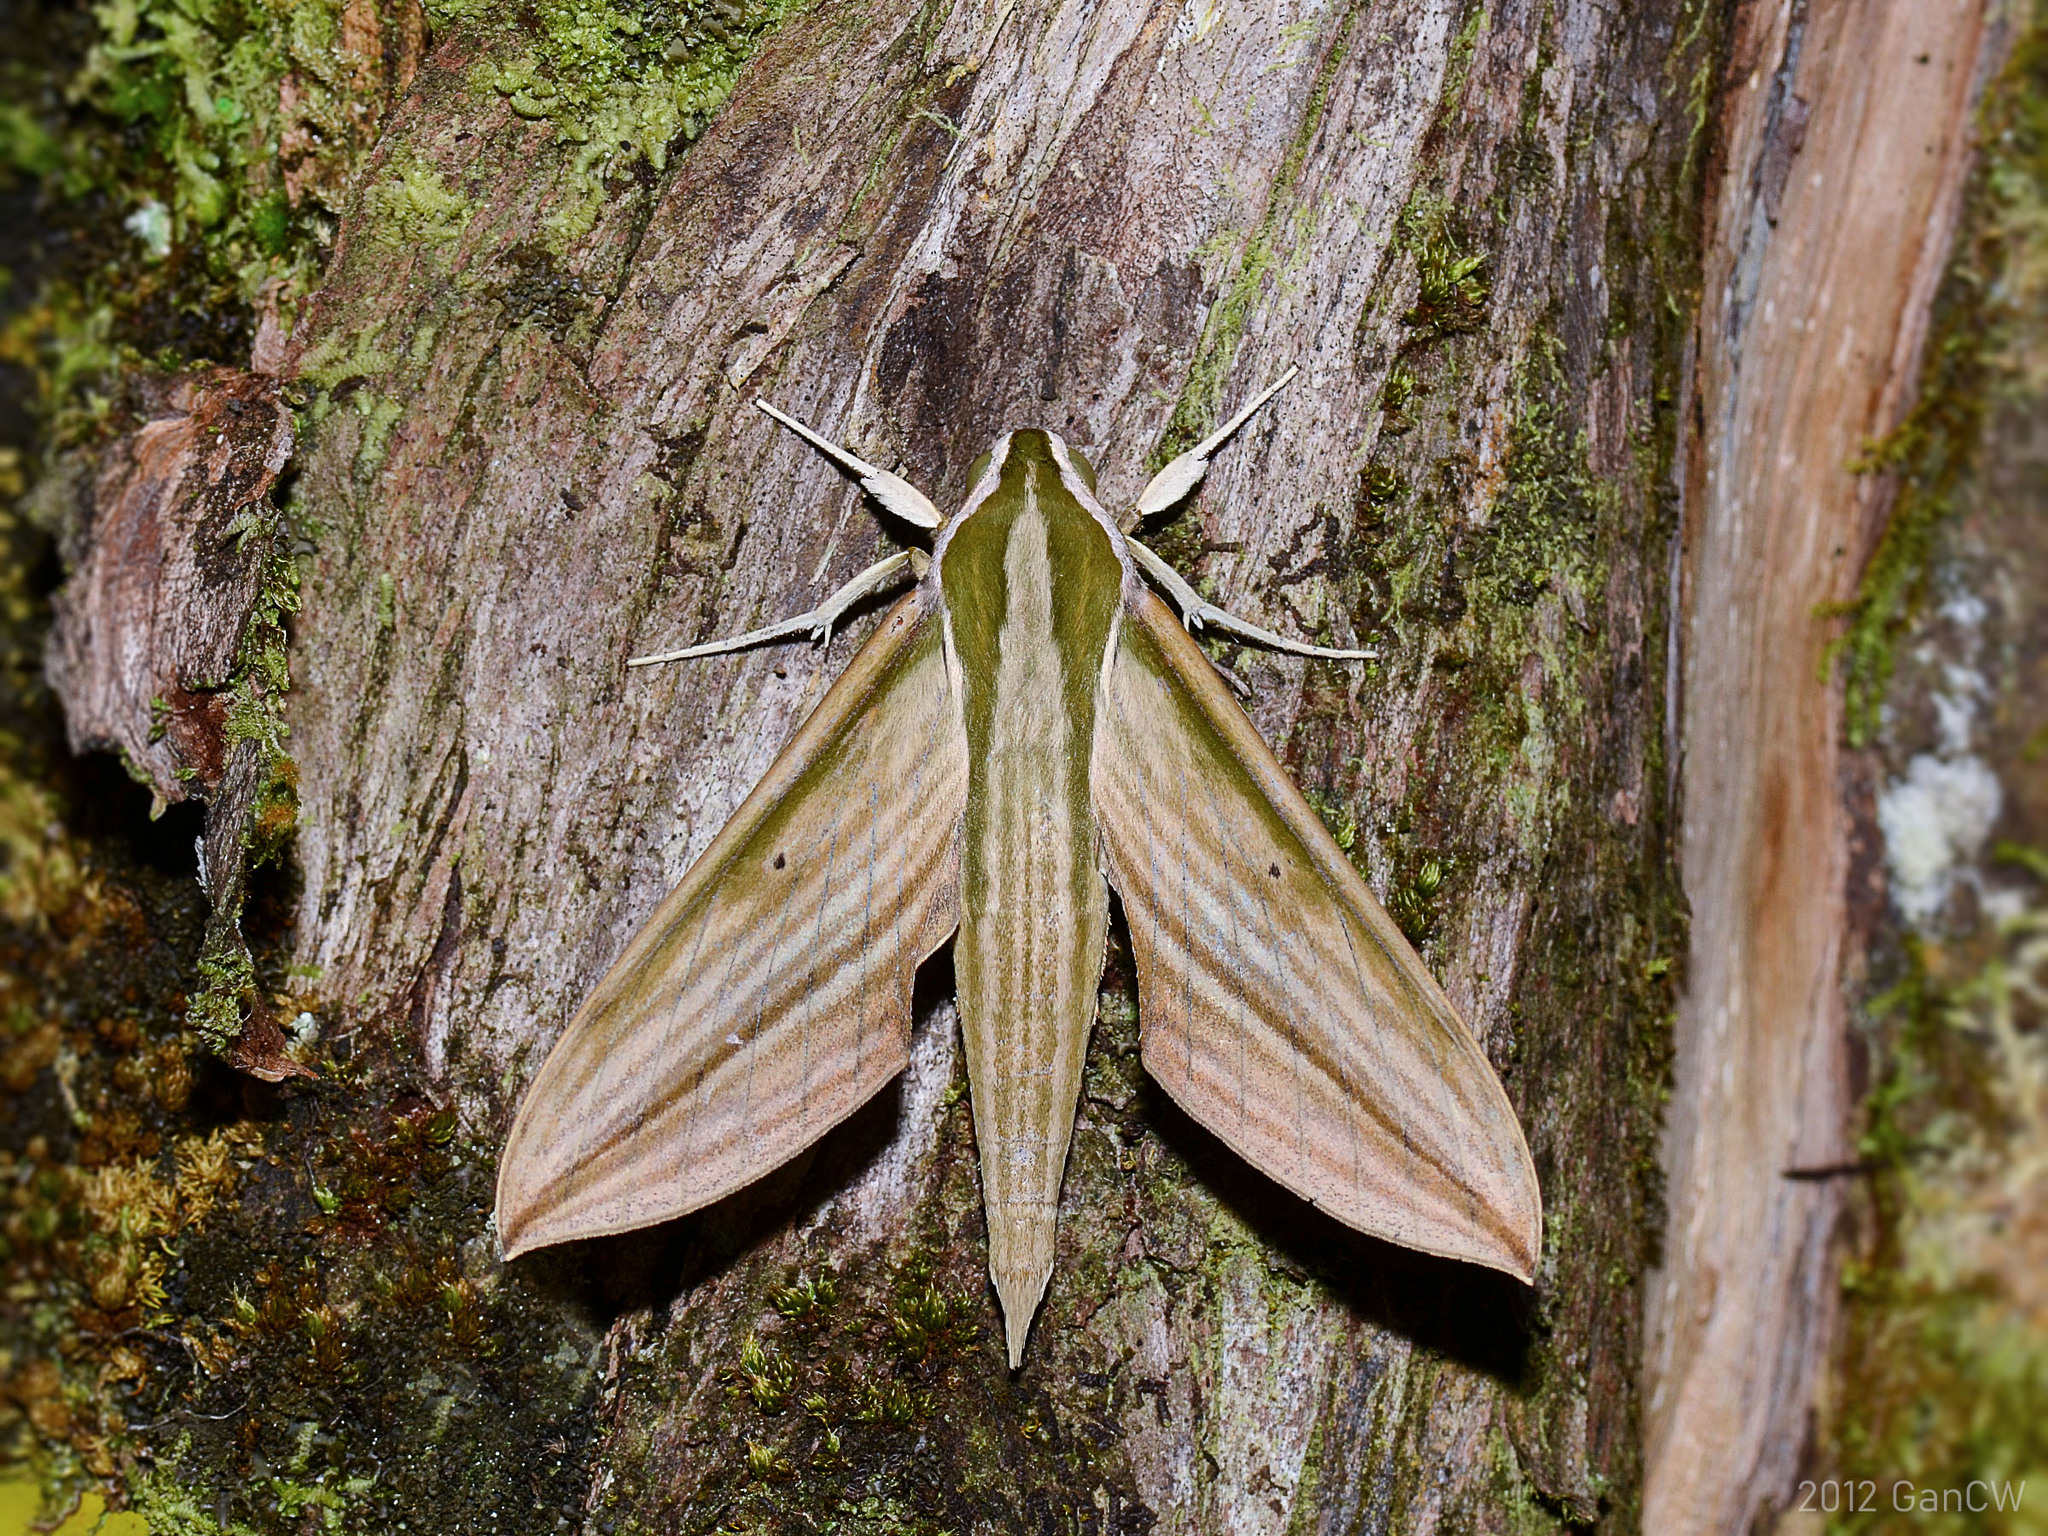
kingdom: Animalia
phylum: Arthropoda
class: Insecta
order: Lepidoptera
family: Sphingidae
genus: Cechetra
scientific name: Cechetra lineosa
